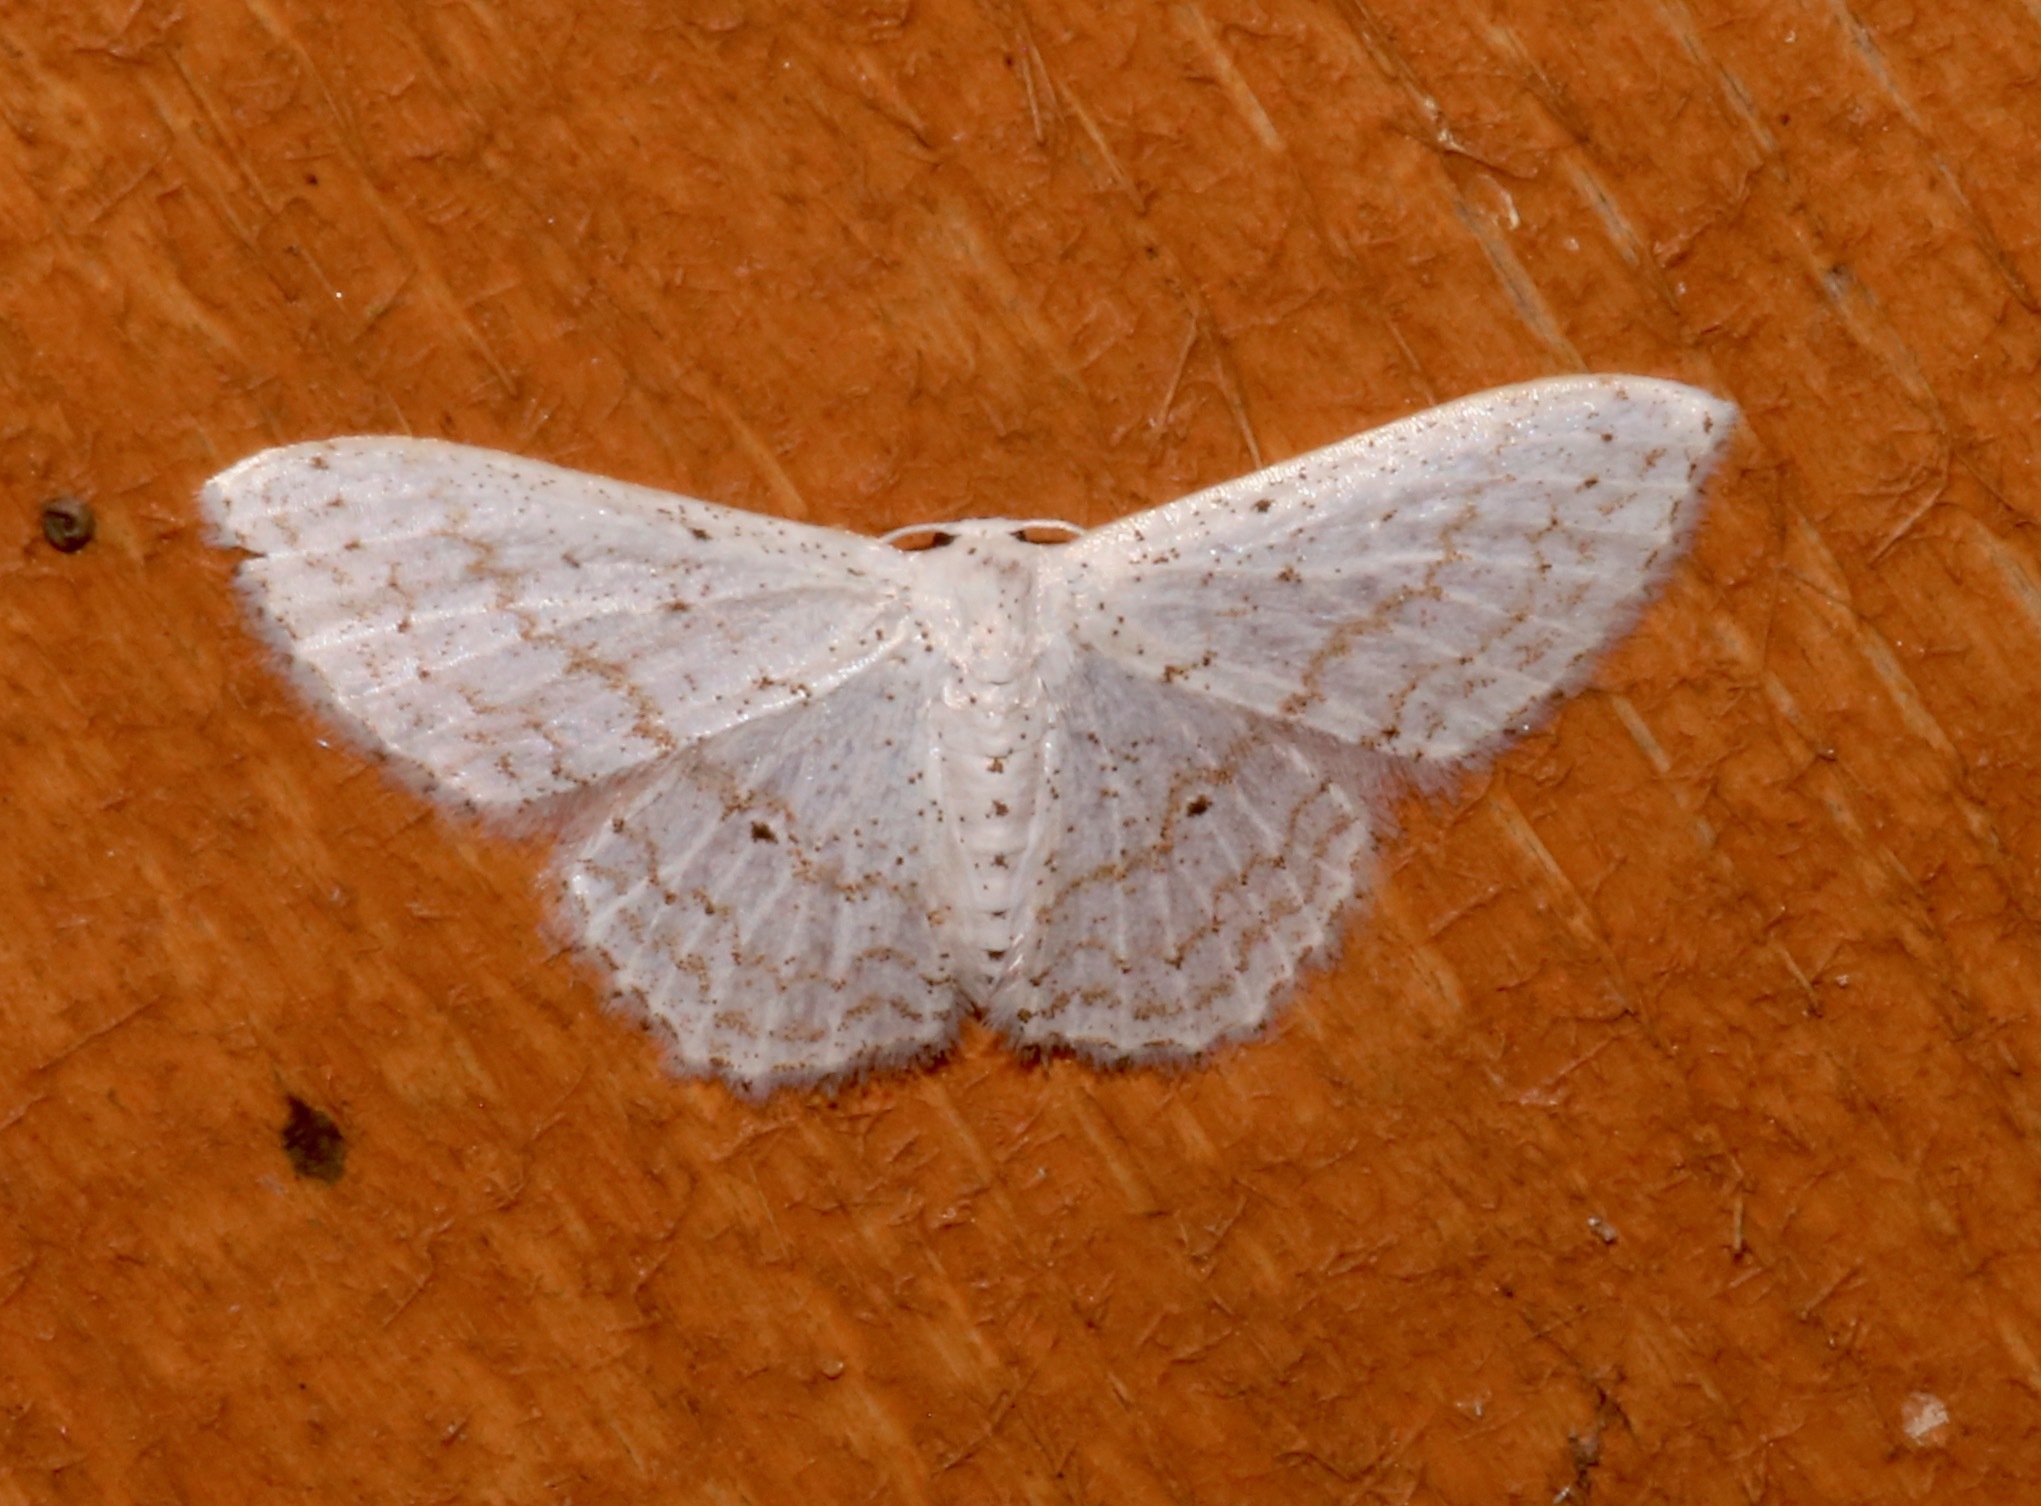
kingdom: Animalia
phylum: Arthropoda
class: Insecta
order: Lepidoptera
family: Geometridae
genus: Idaea
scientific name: Idaea tacturata
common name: Dot-lined wave
